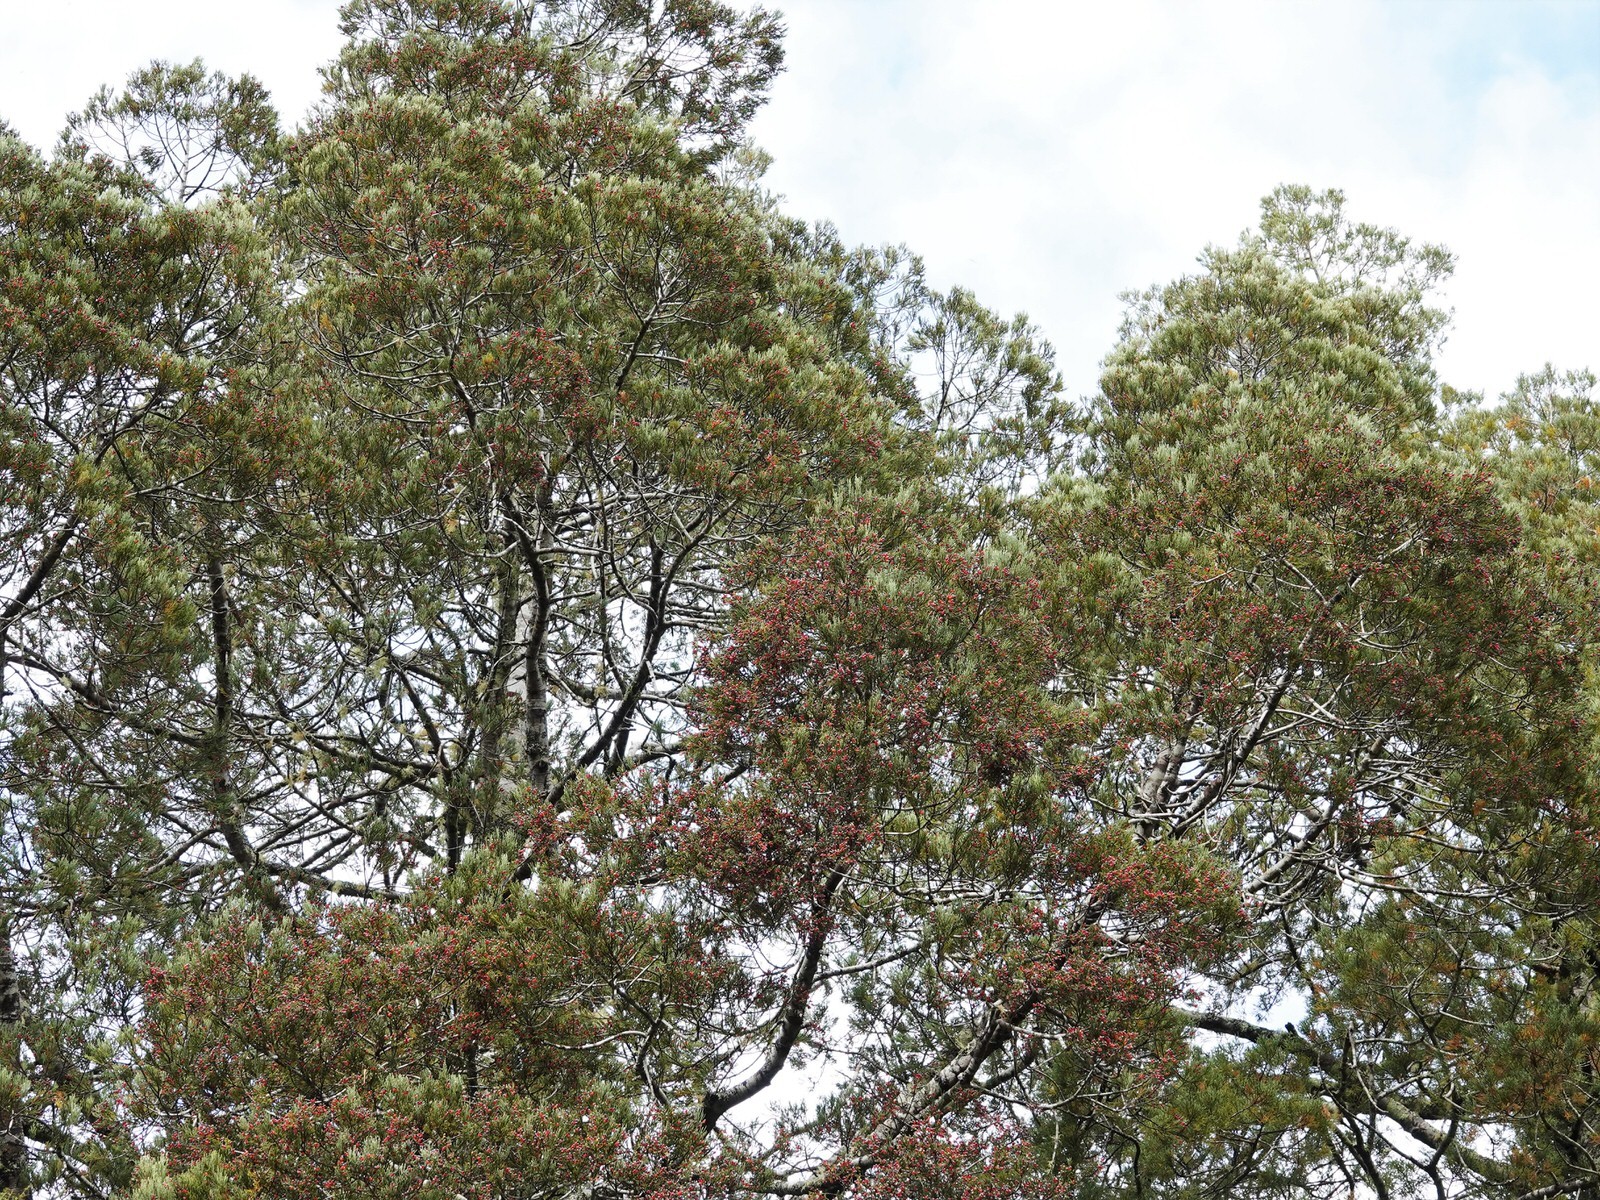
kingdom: Plantae
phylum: Tracheophyta
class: Pinopsida
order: Pinales
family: Podocarpaceae
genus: Dacrycarpus
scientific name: Dacrycarpus dacrydioides
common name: White pine
